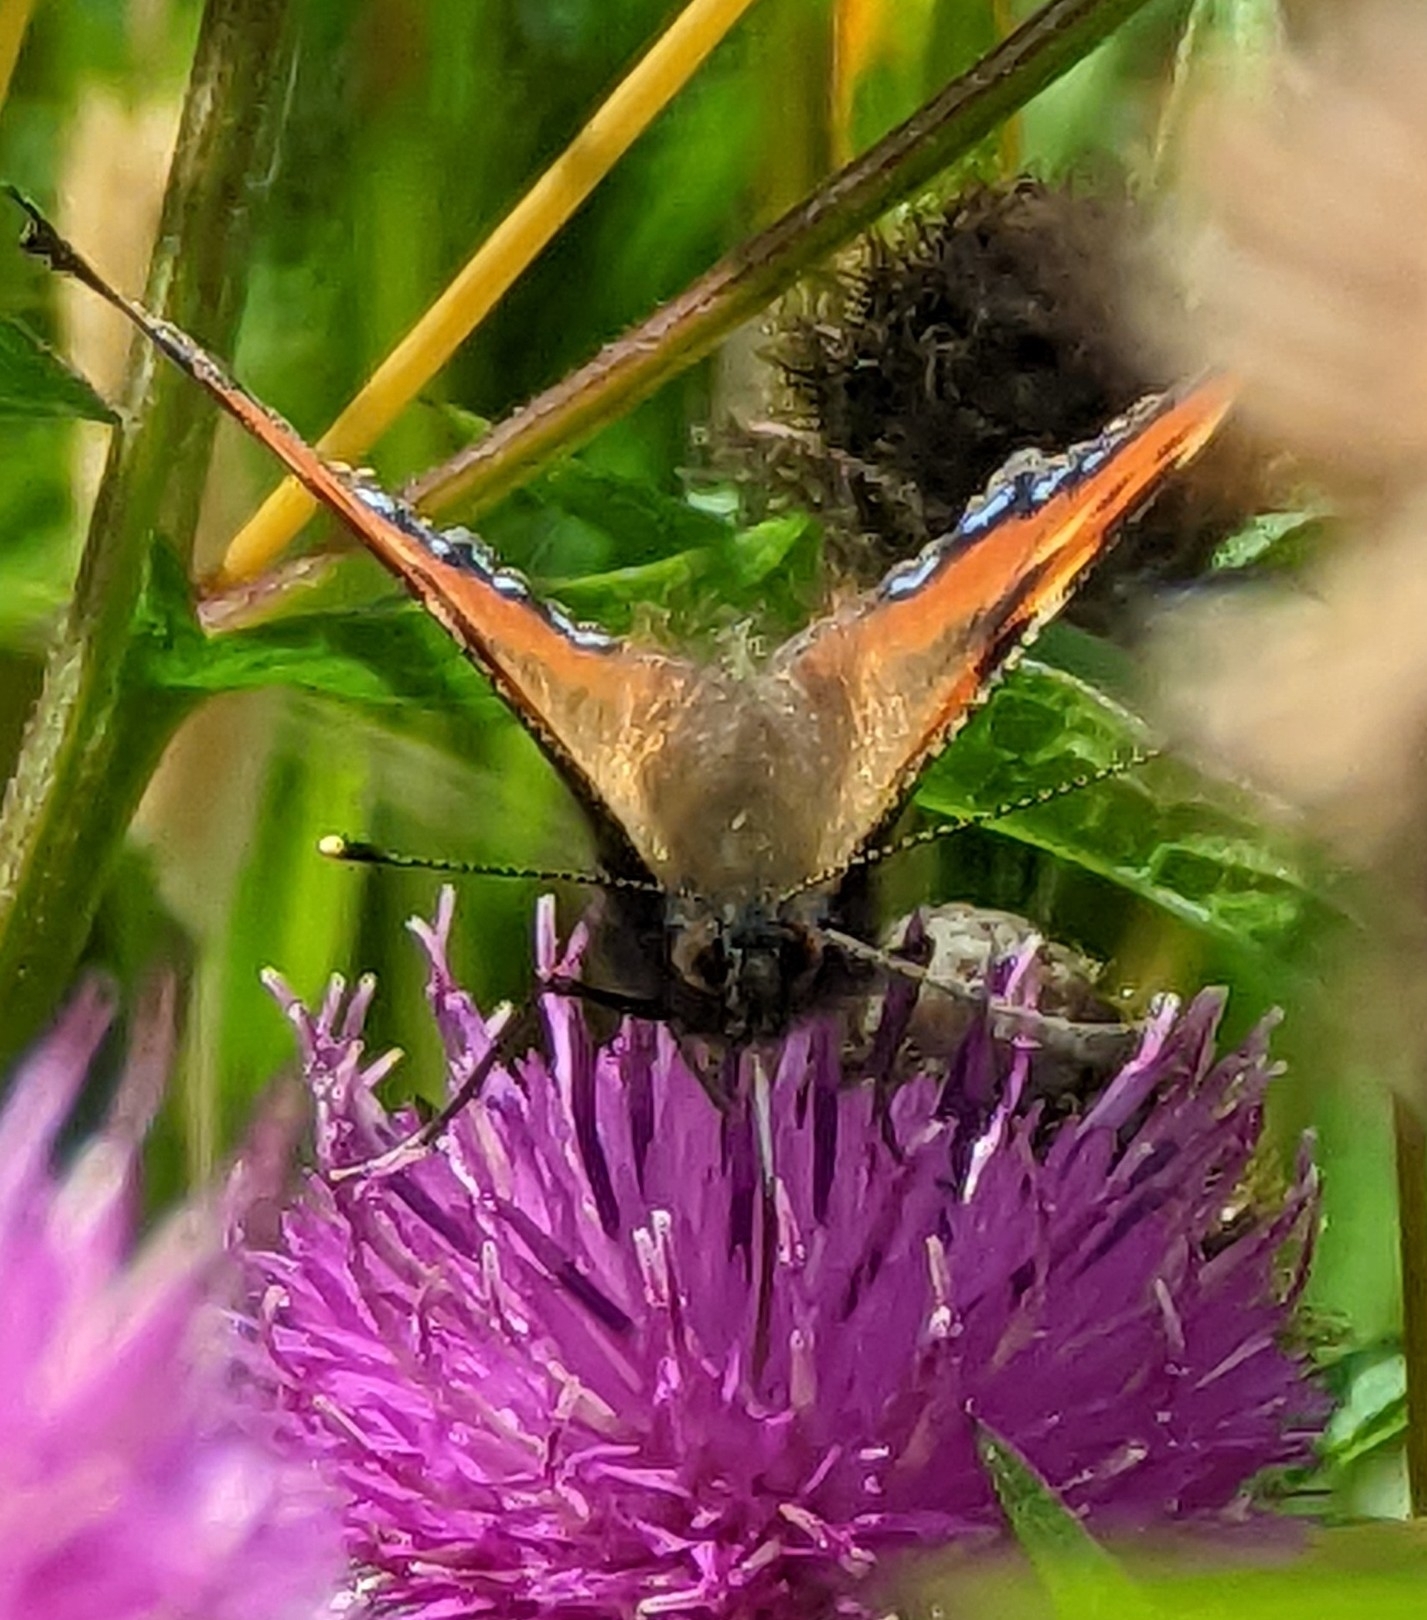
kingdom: Animalia
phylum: Arthropoda
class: Insecta
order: Lepidoptera
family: Nymphalidae
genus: Aglais
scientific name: Aglais urticae
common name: Small tortoiseshell
